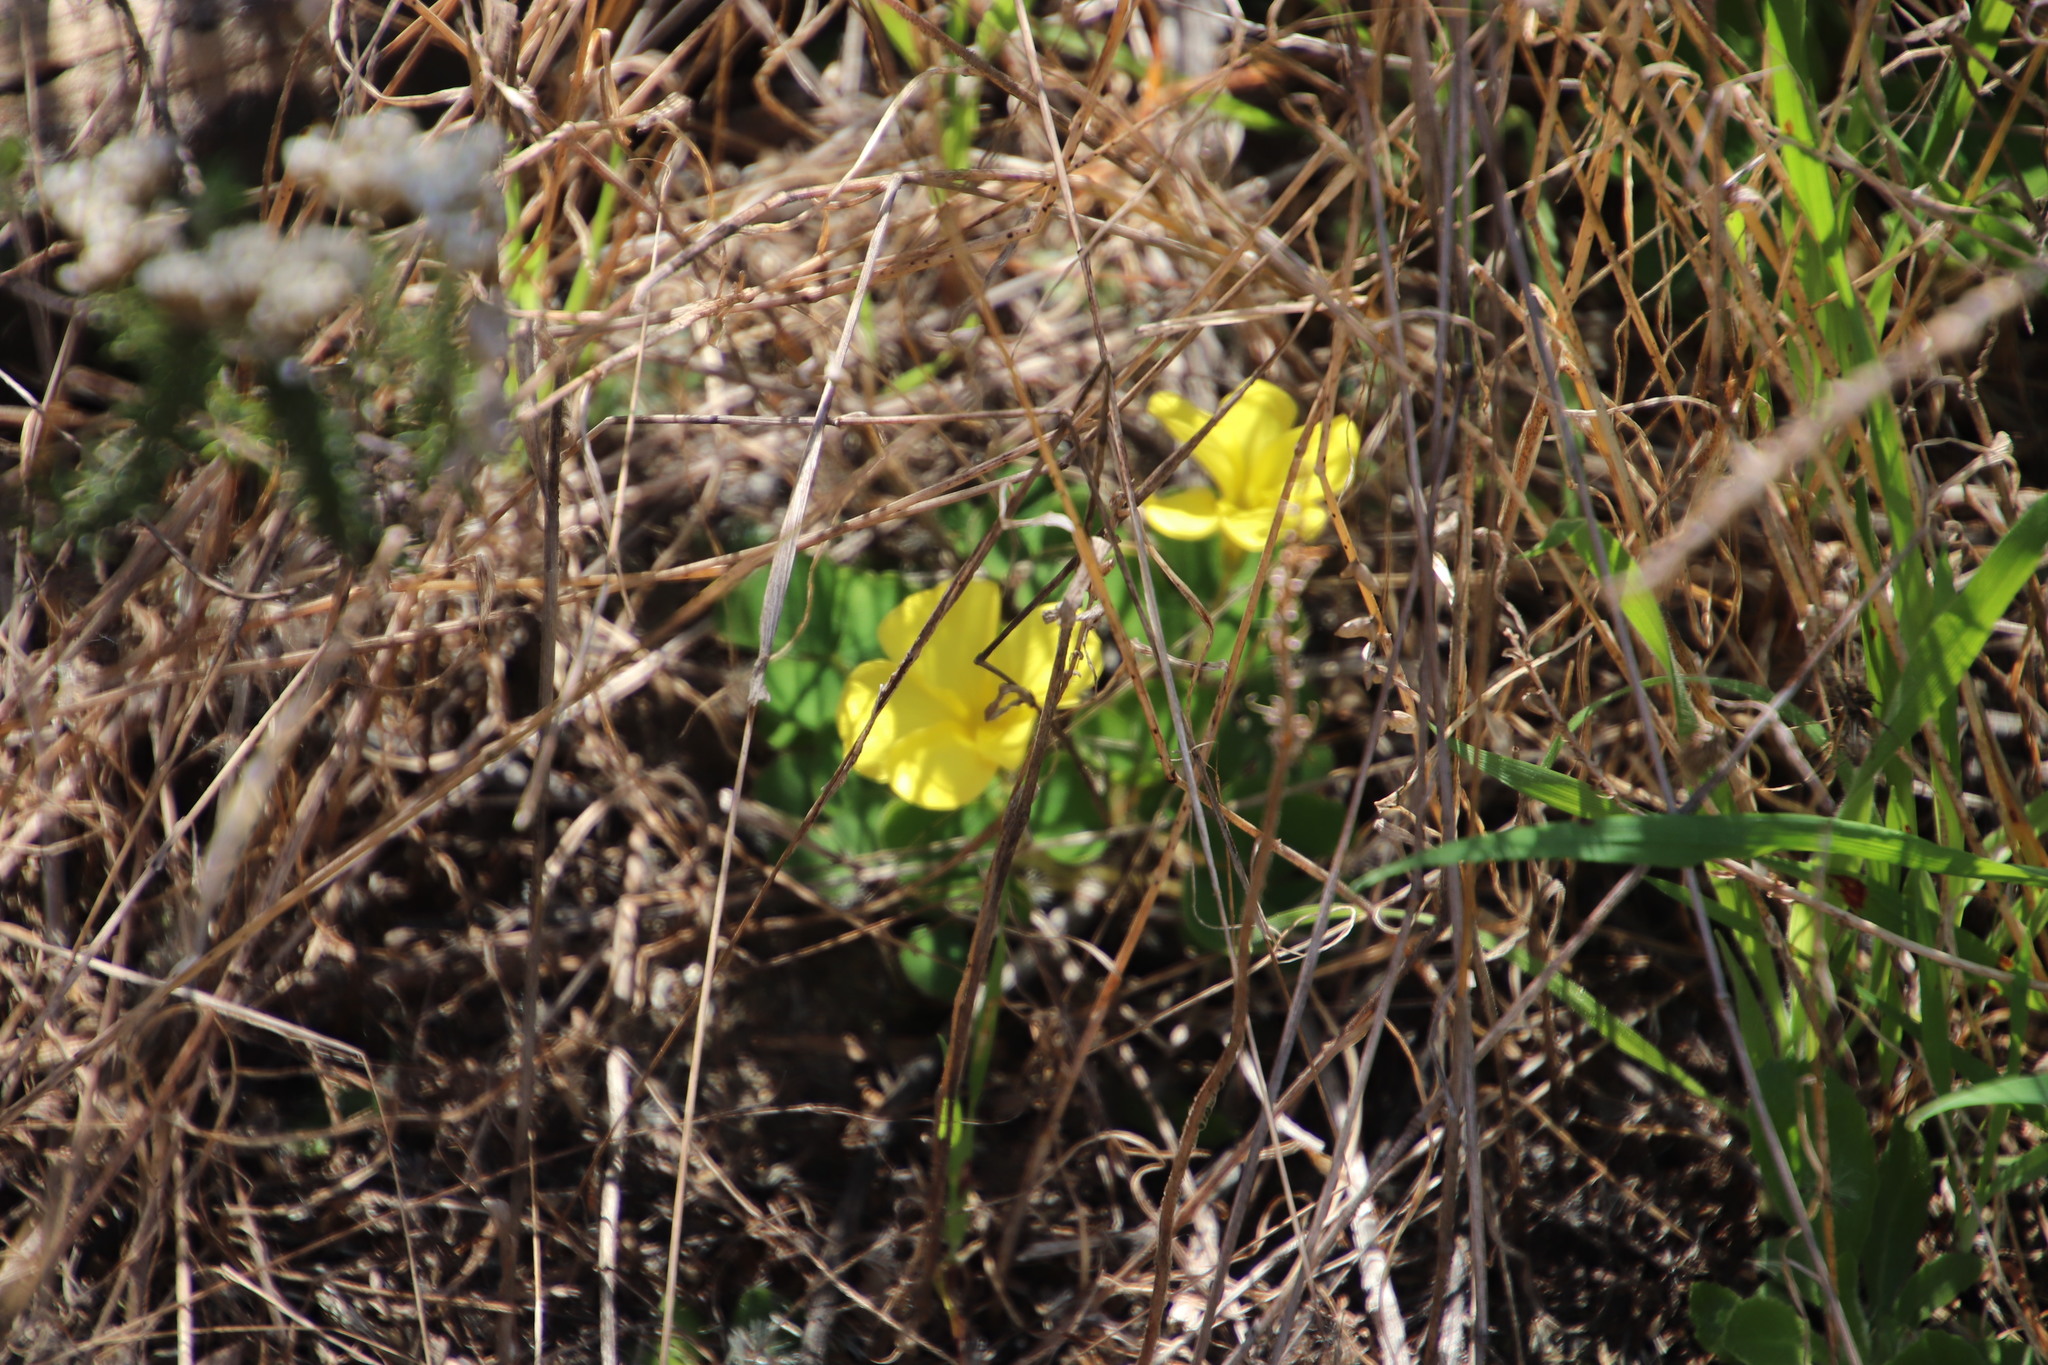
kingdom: Plantae
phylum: Tracheophyta
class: Magnoliopsida
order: Oxalidales
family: Oxalidaceae
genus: Oxalis
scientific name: Oxalis luteola
